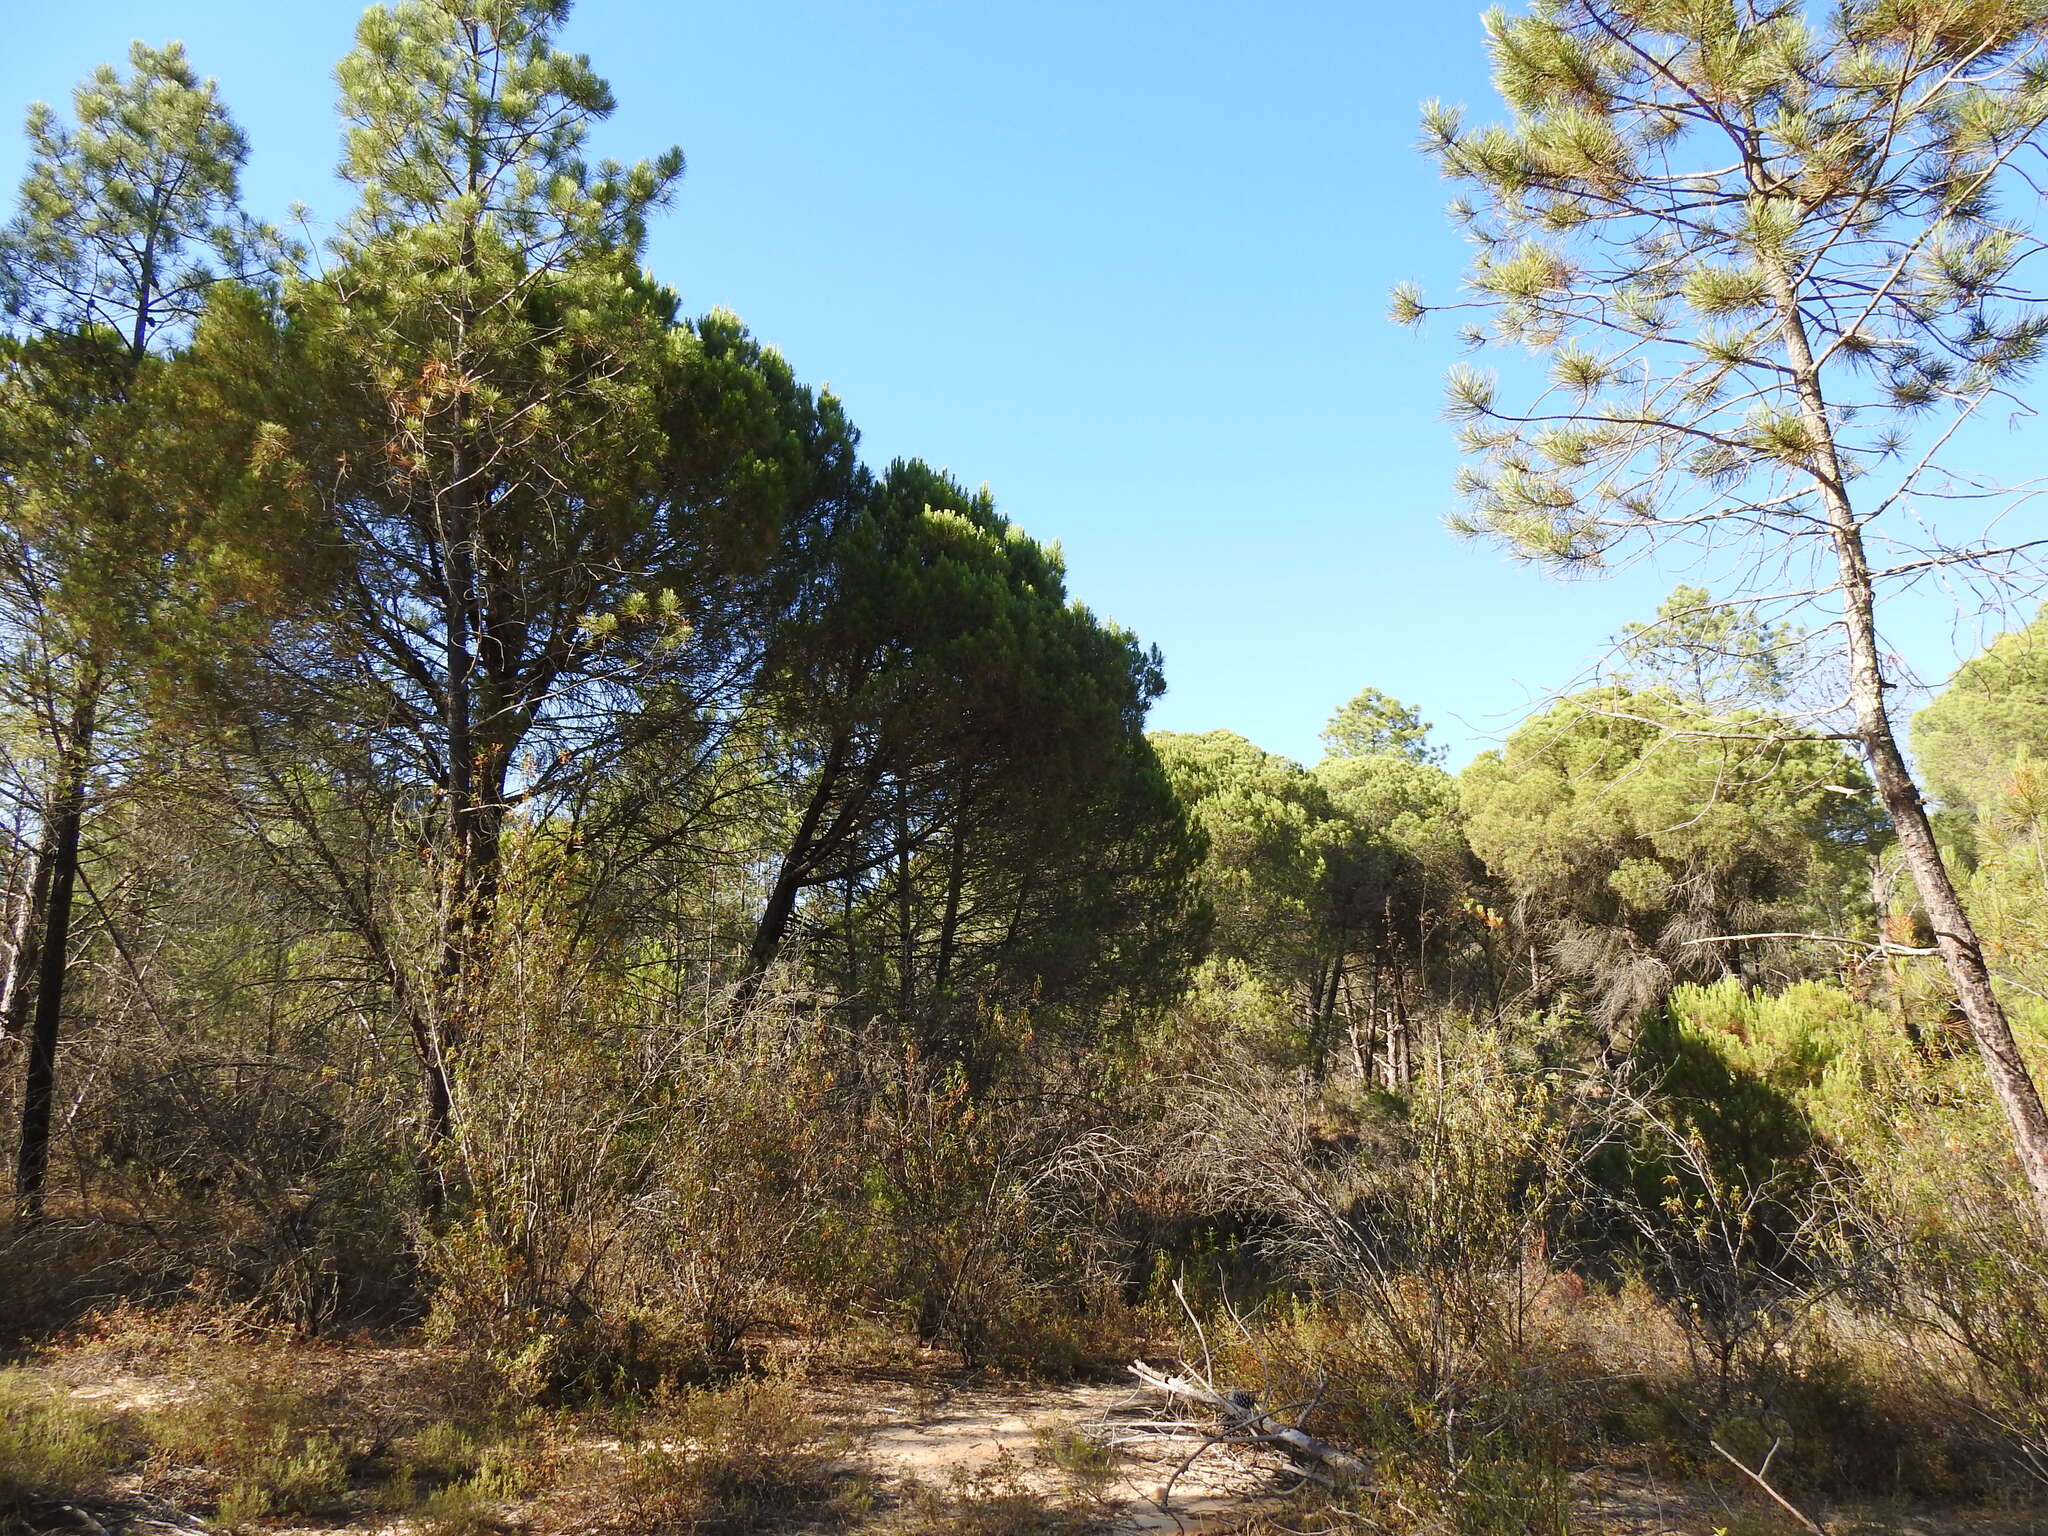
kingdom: Plantae
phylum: Tracheophyta
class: Pinopsida
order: Pinales
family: Pinaceae
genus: Pinus
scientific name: Pinus pinea
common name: Italian stone pine
